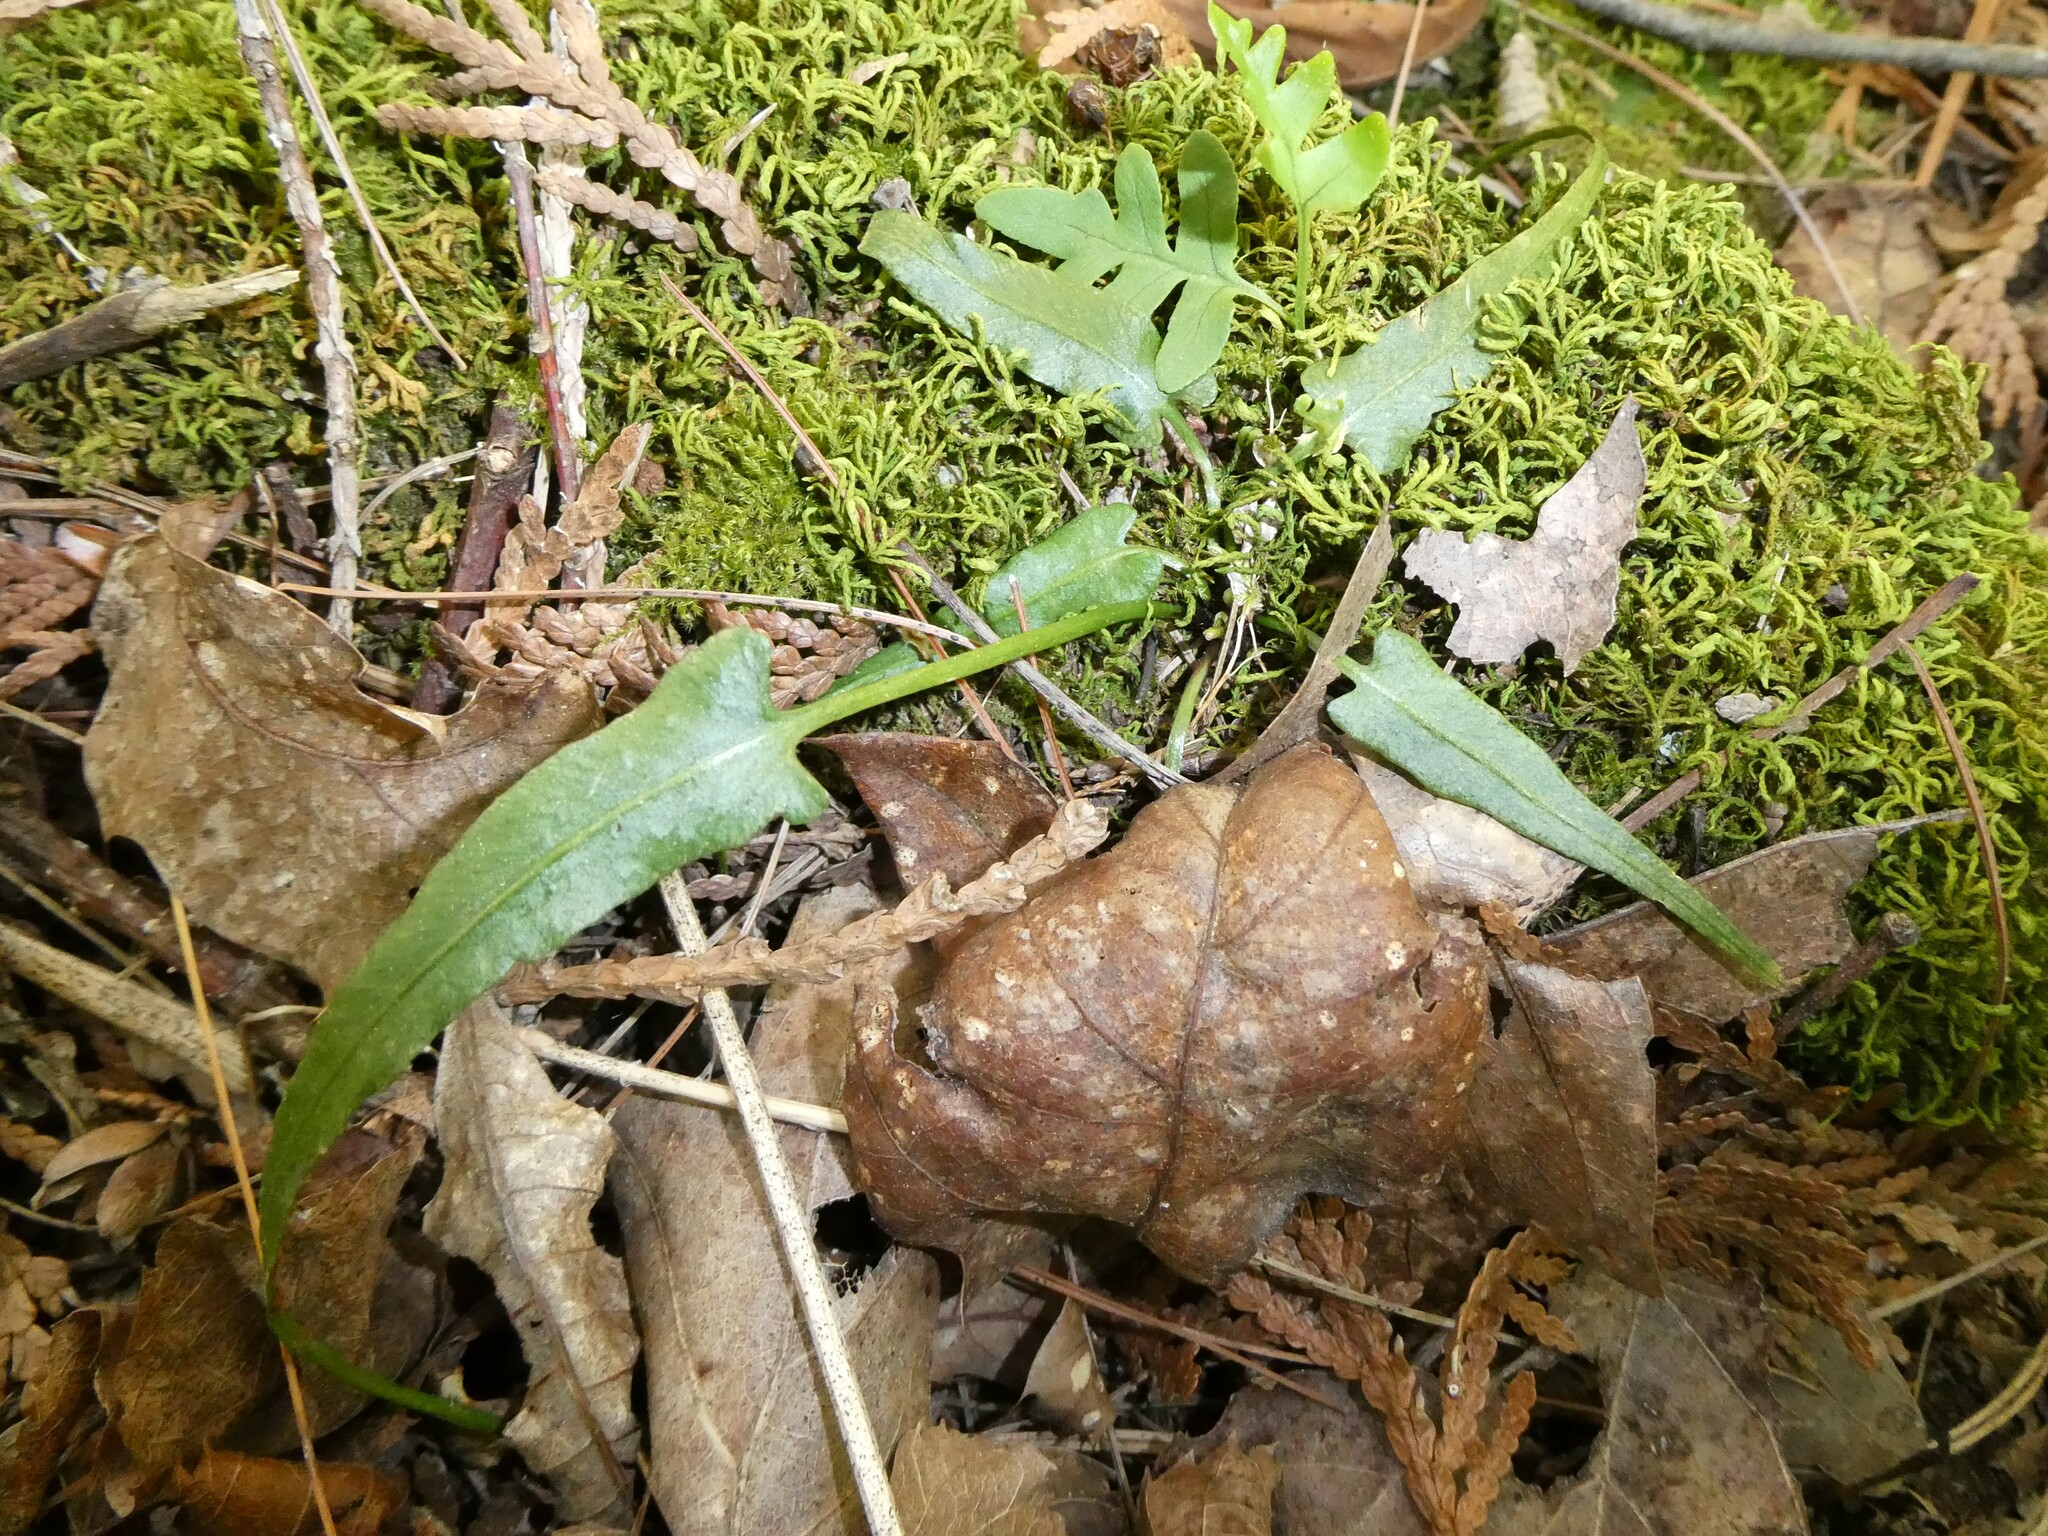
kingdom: Plantae
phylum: Tracheophyta
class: Polypodiopsida
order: Polypodiales
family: Aspleniaceae
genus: Asplenium
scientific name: Asplenium rhizophyllum
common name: Walking fern
